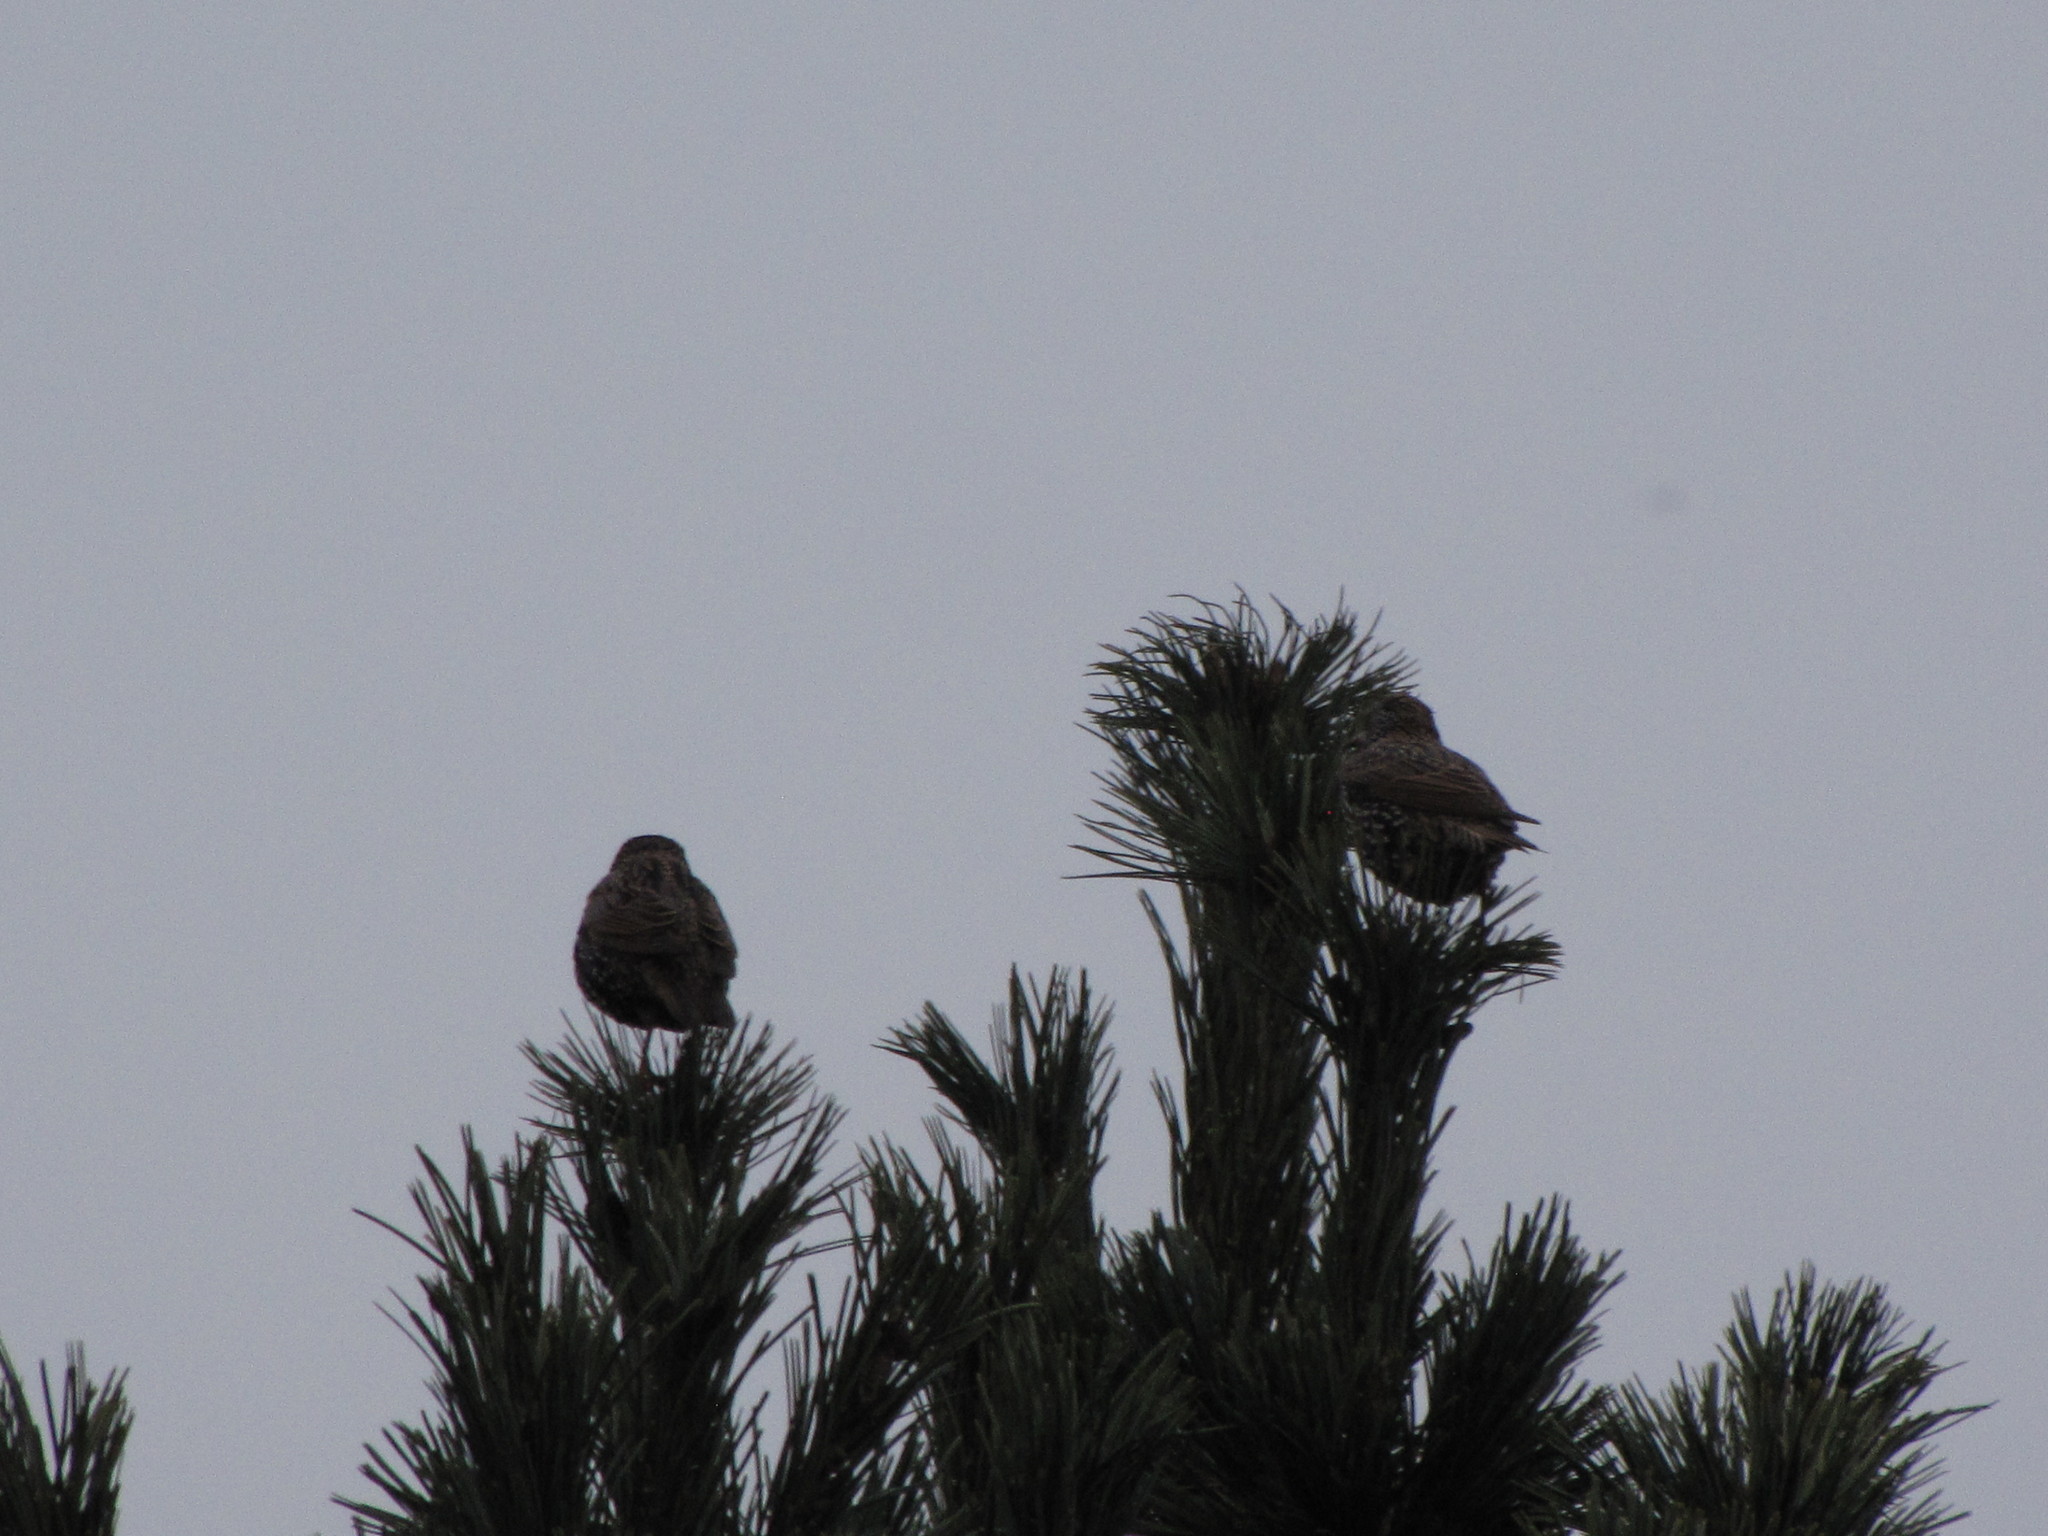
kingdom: Animalia
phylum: Chordata
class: Aves
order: Passeriformes
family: Sturnidae
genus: Sturnus
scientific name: Sturnus vulgaris
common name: Common starling
